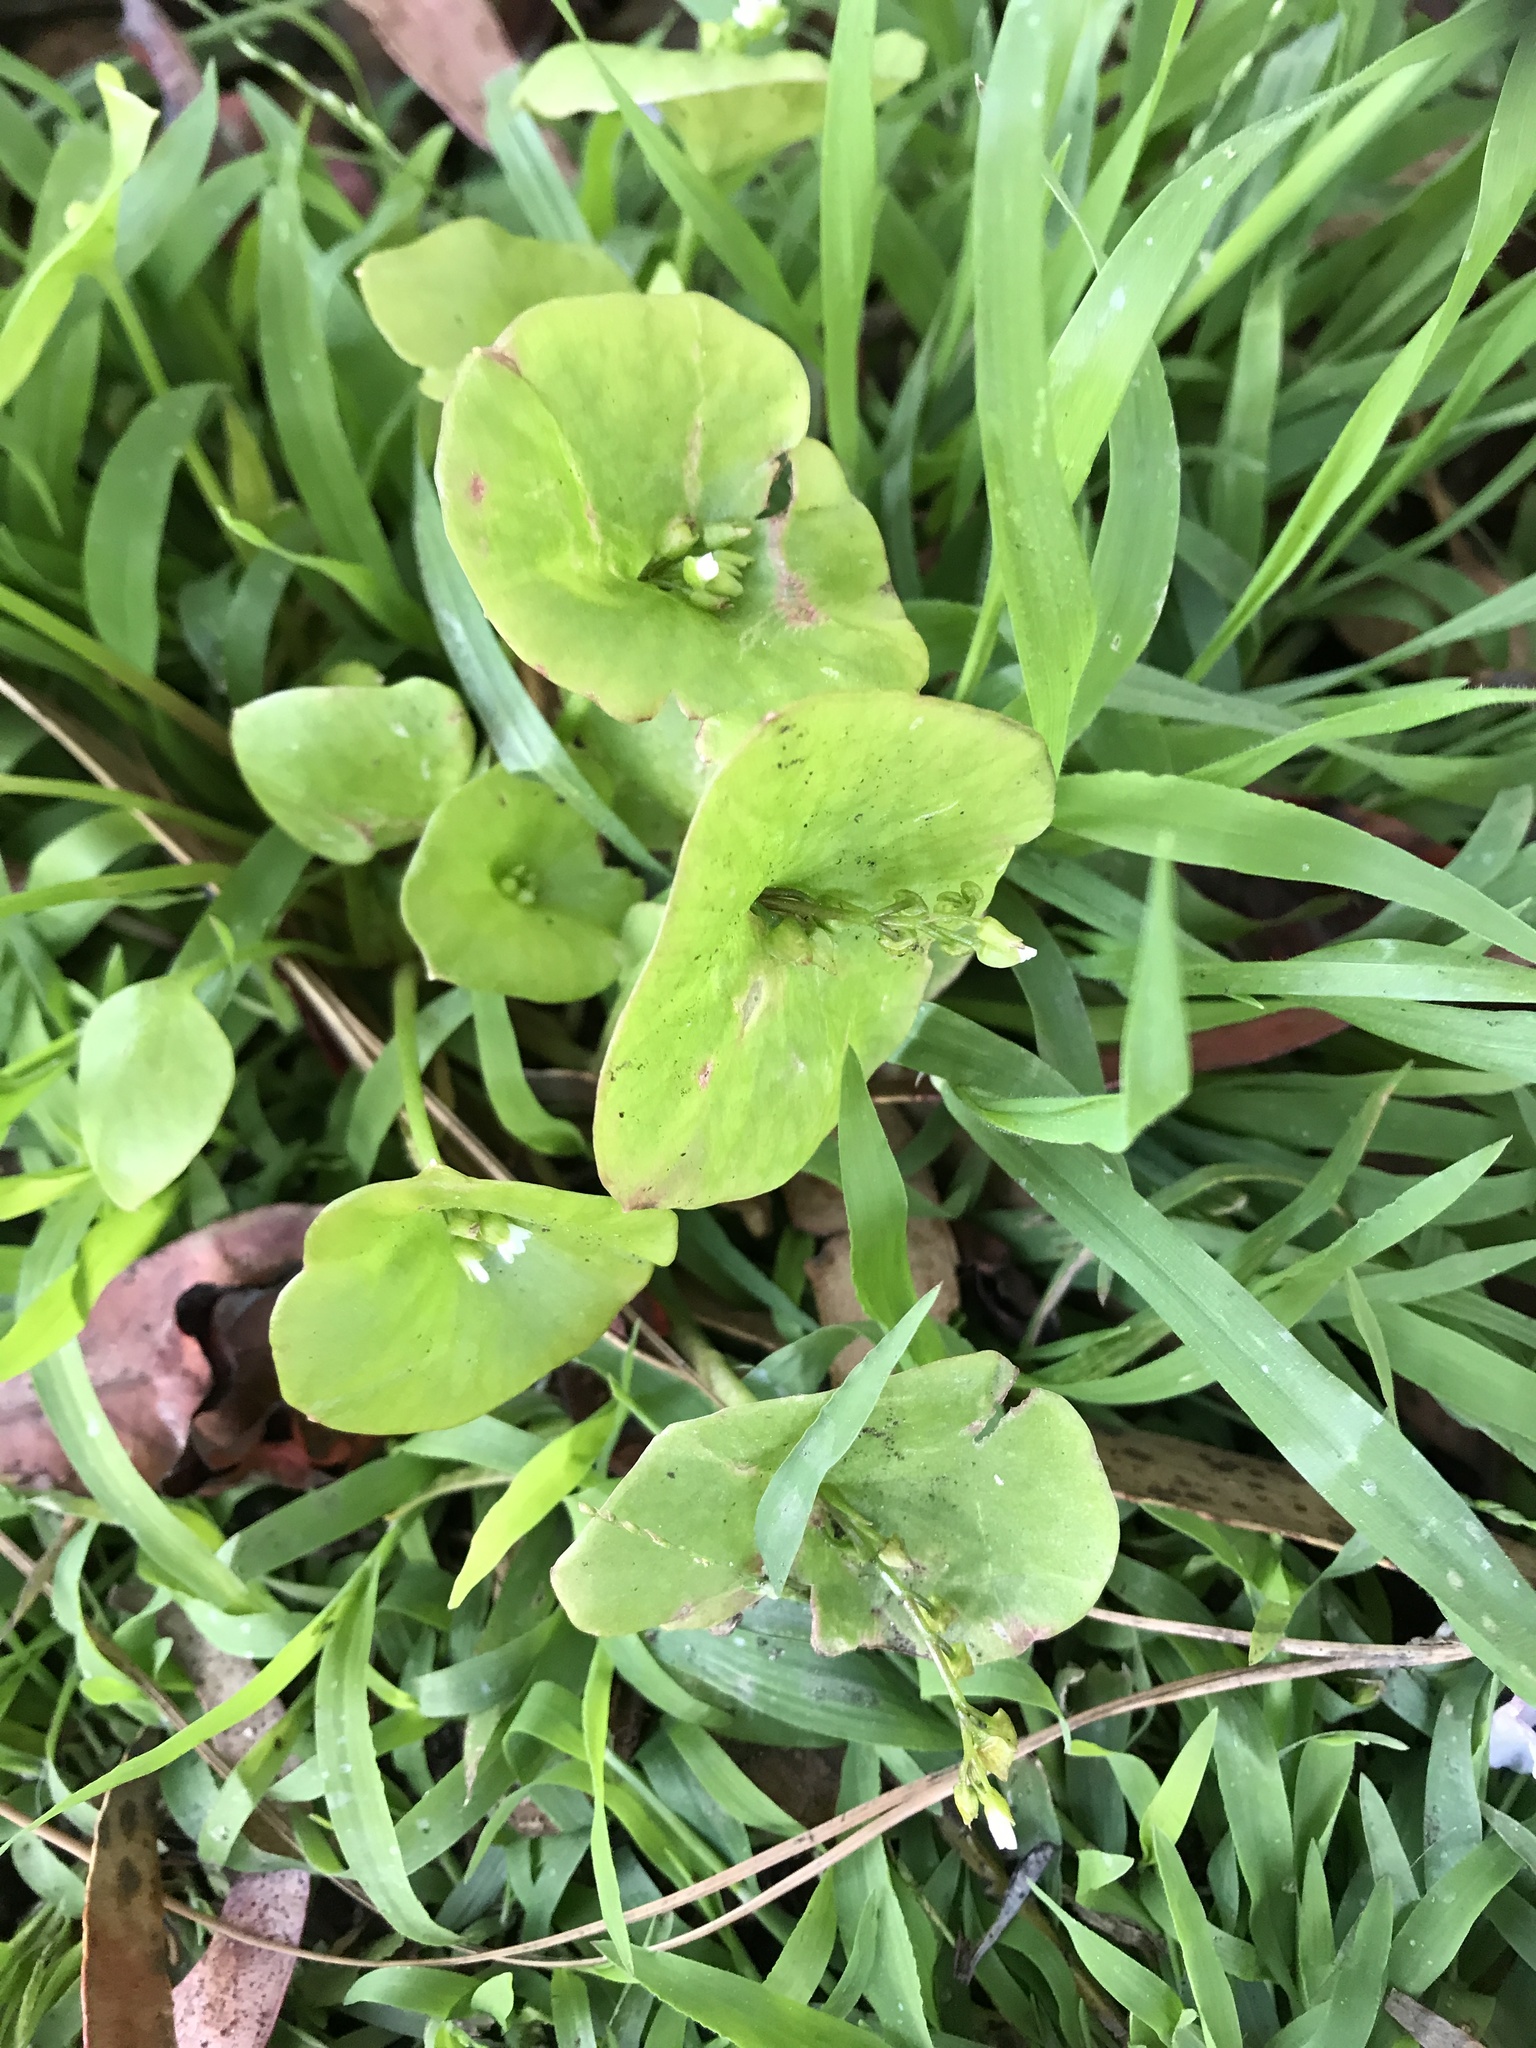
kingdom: Plantae
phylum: Tracheophyta
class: Magnoliopsida
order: Caryophyllales
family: Montiaceae
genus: Claytonia
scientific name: Claytonia perfoliata
